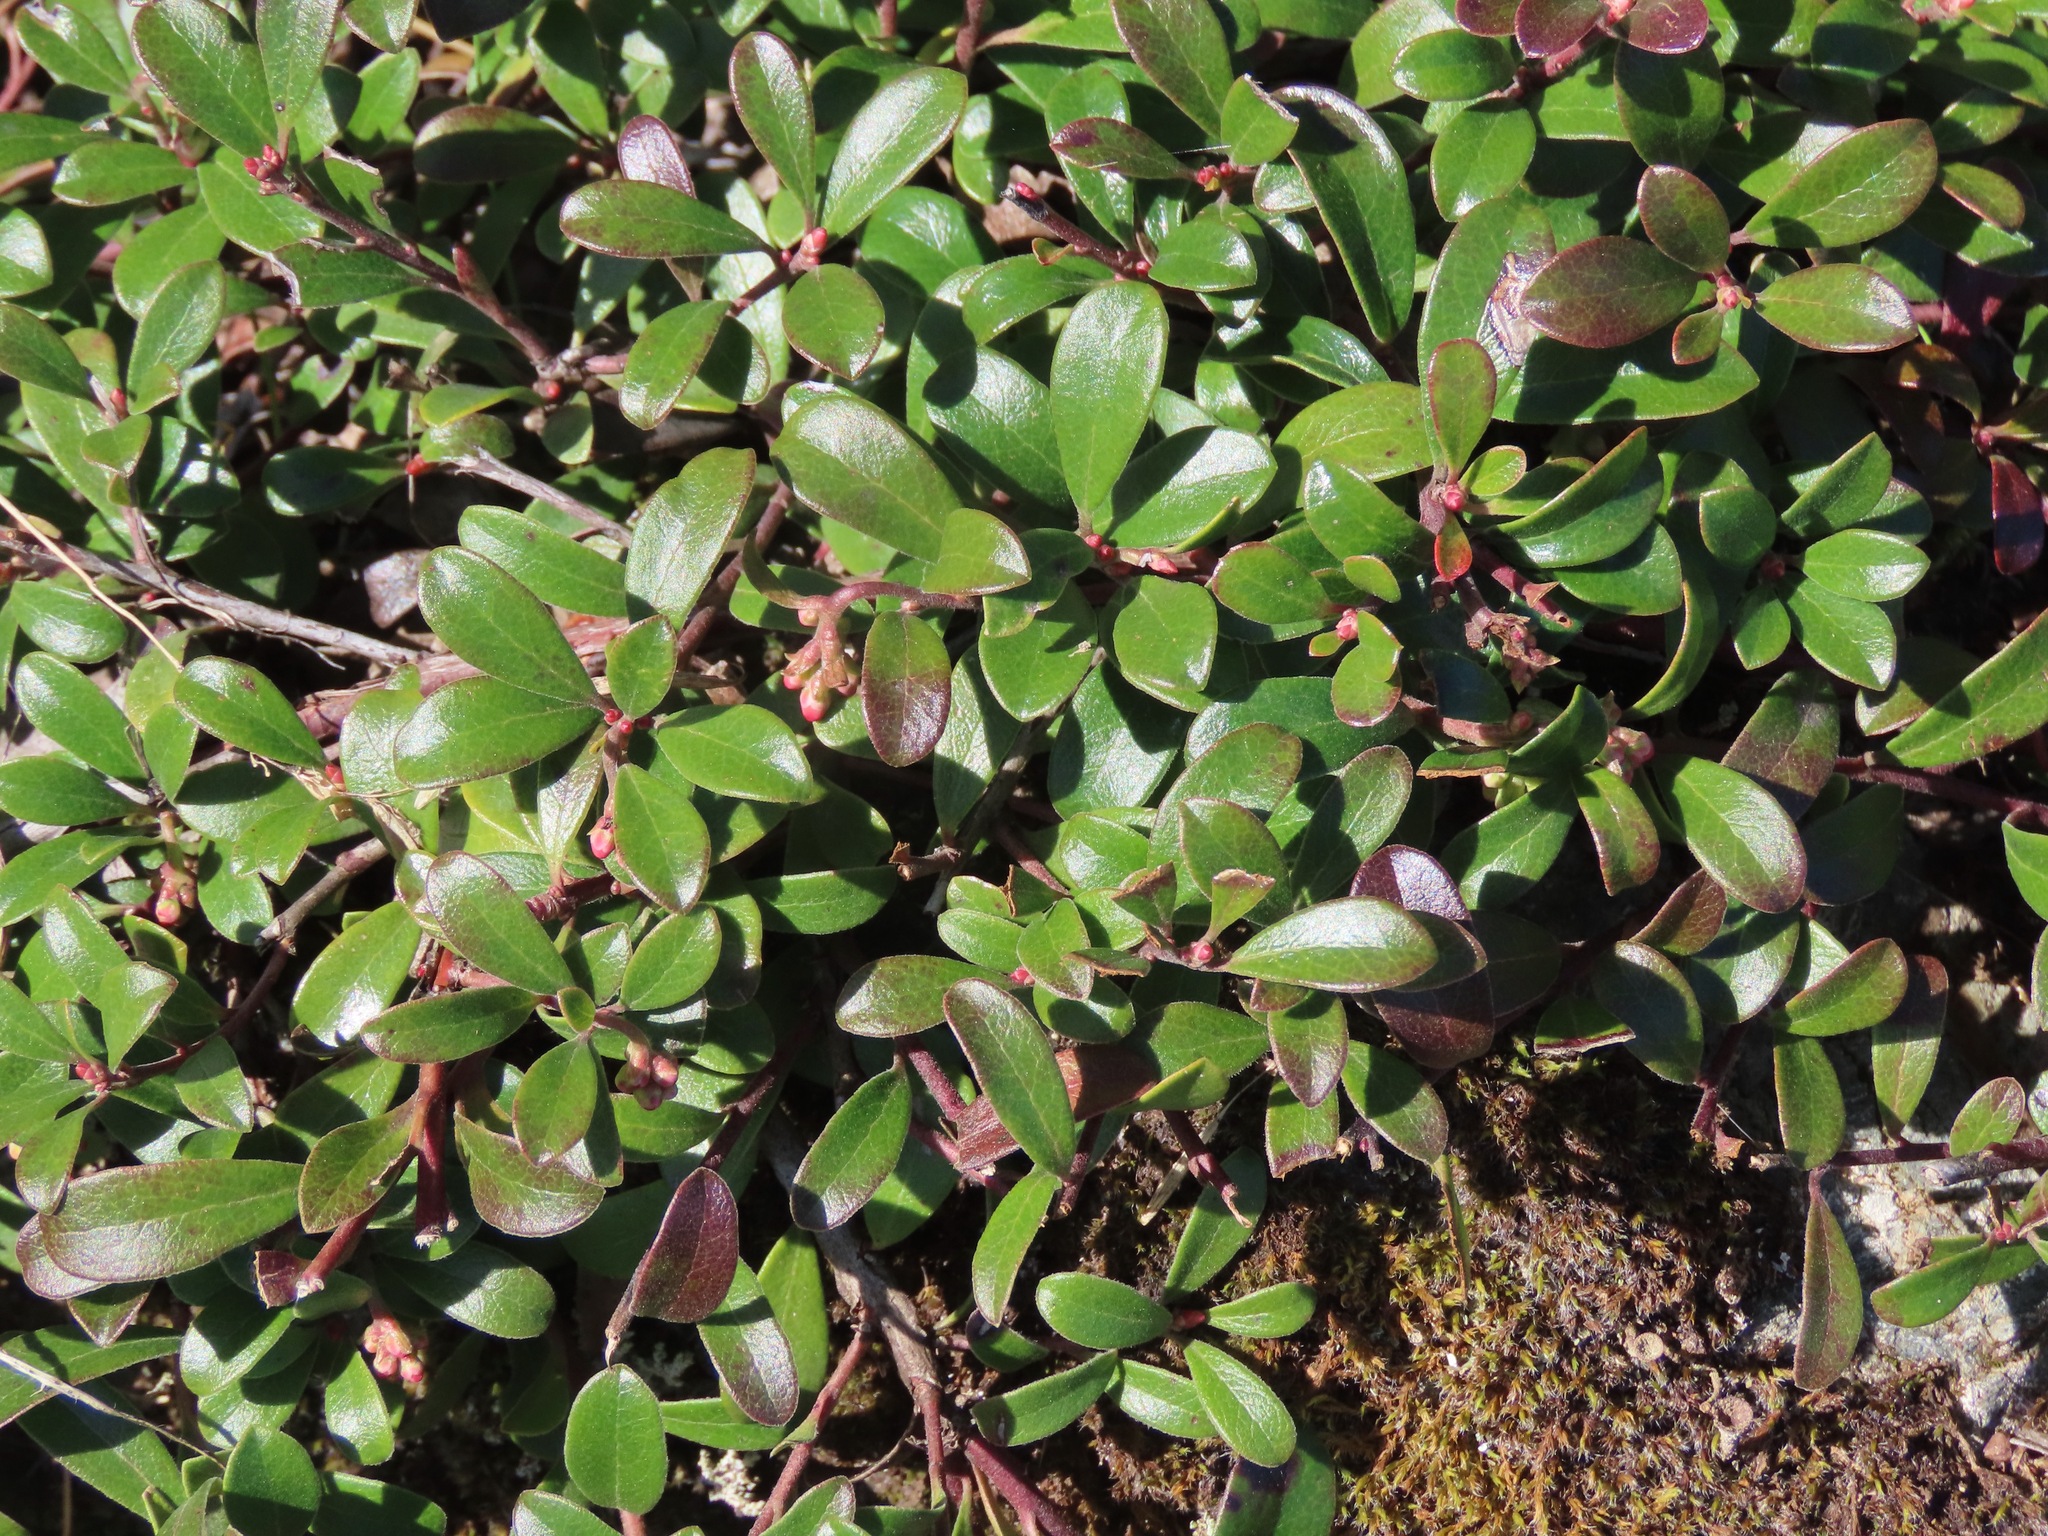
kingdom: Plantae
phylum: Tracheophyta
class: Magnoliopsida
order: Ericales
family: Ericaceae
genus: Arctostaphylos
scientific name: Arctostaphylos uva-ursi
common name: Bearberry
